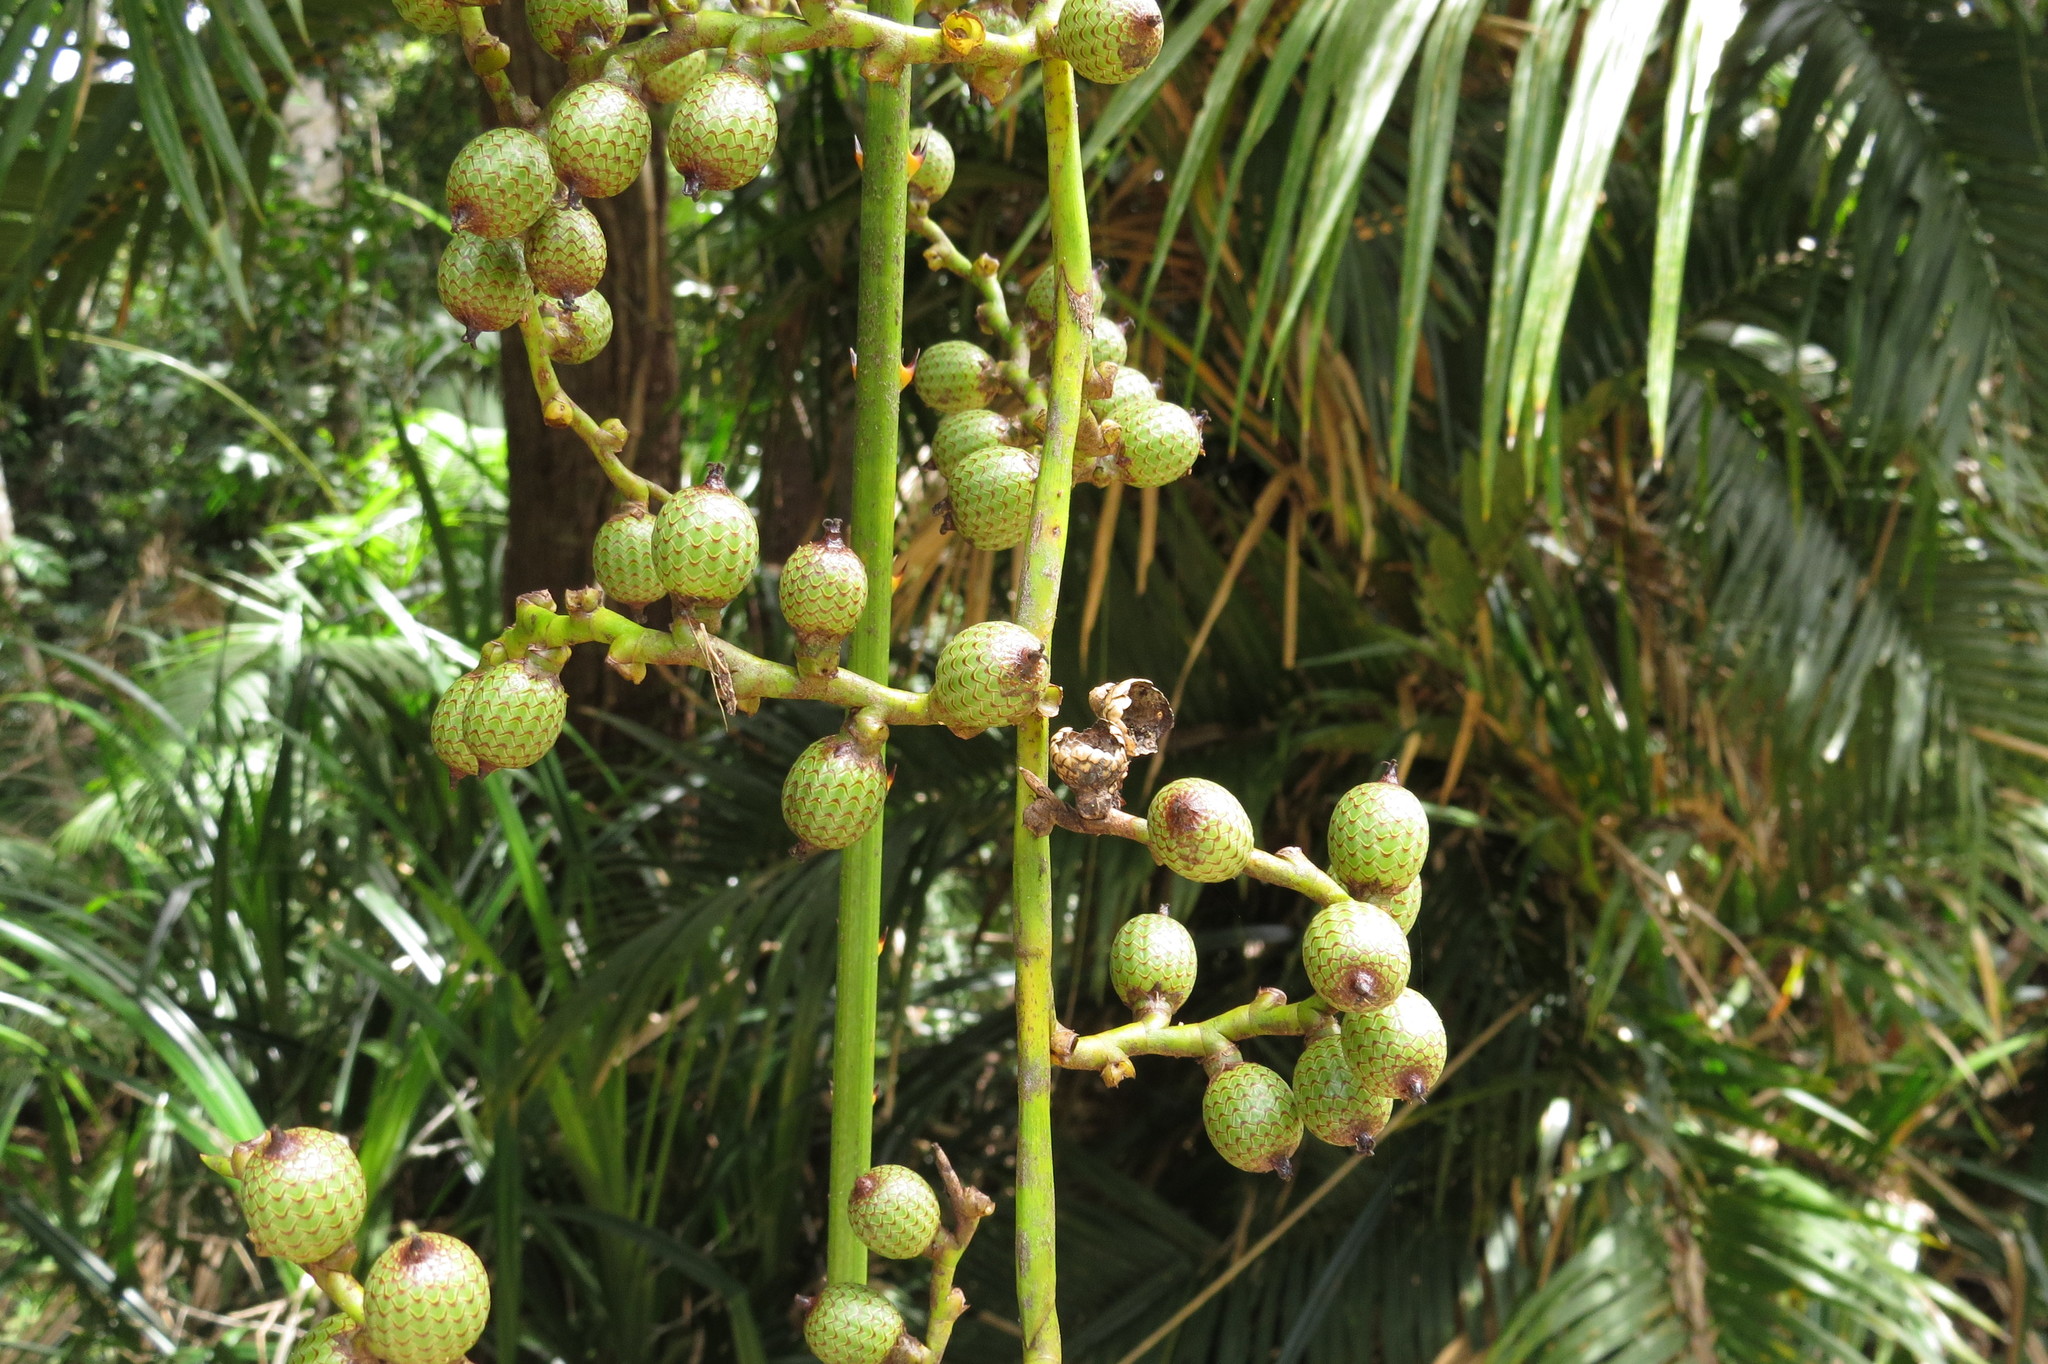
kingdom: Plantae
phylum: Tracheophyta
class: Liliopsida
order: Arecales
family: Arecaceae
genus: Calamus
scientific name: Calamus moti
